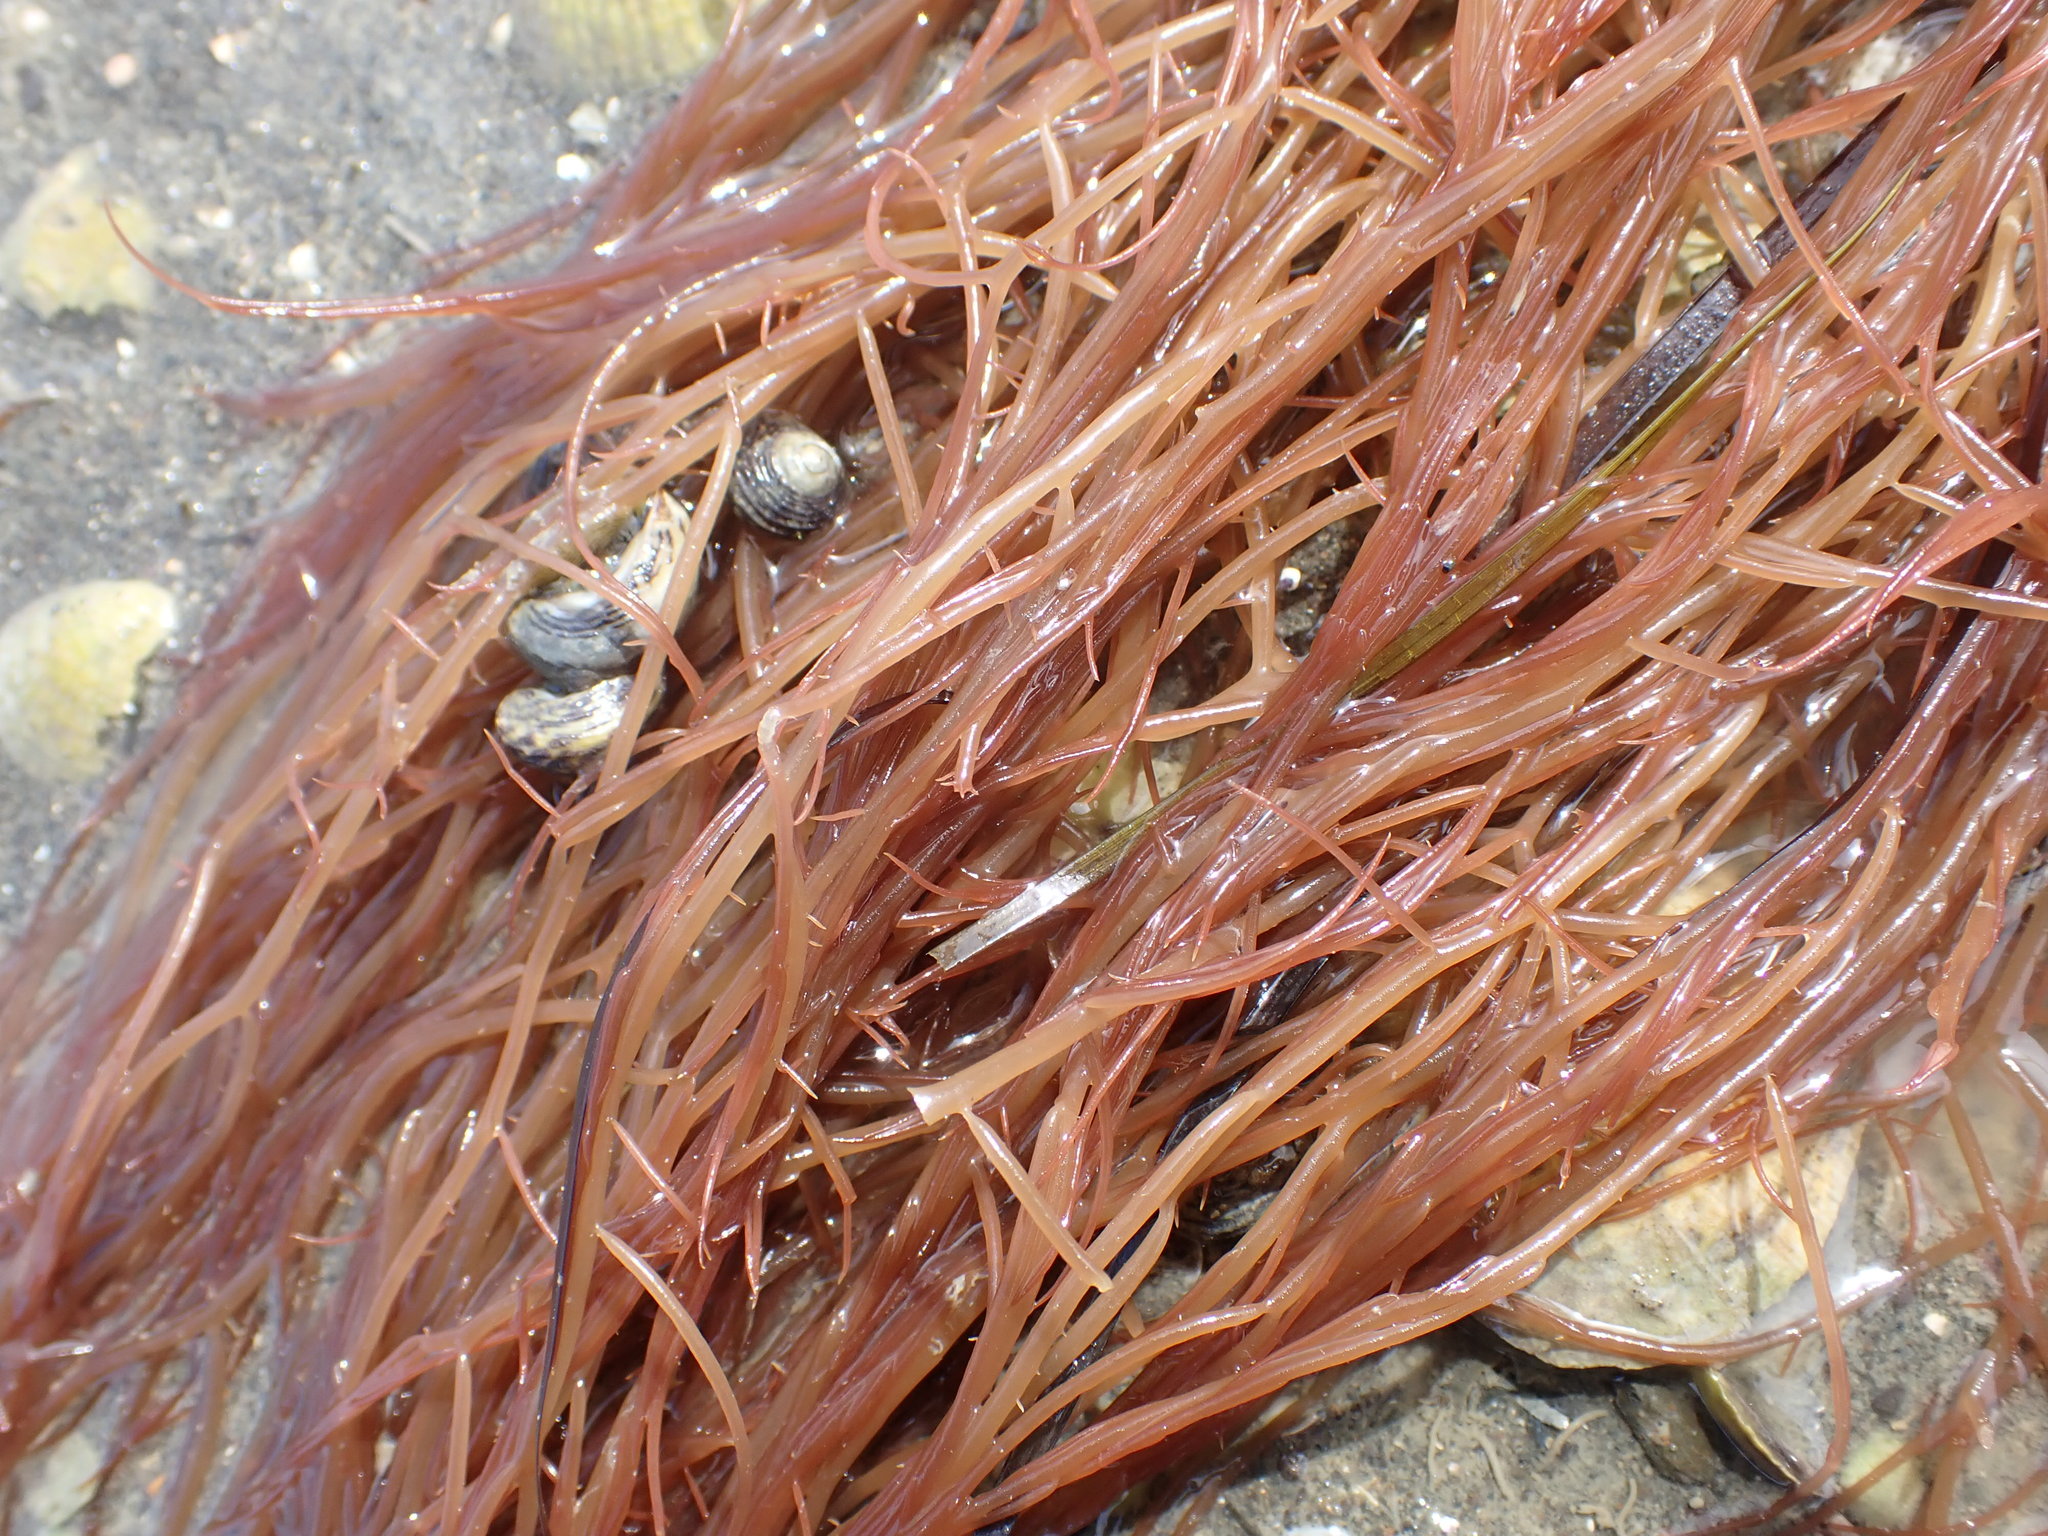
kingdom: Animalia
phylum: Mollusca
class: Gastropoda
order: Trochida
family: Trochidae
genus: Diloma
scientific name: Diloma subrostratum
